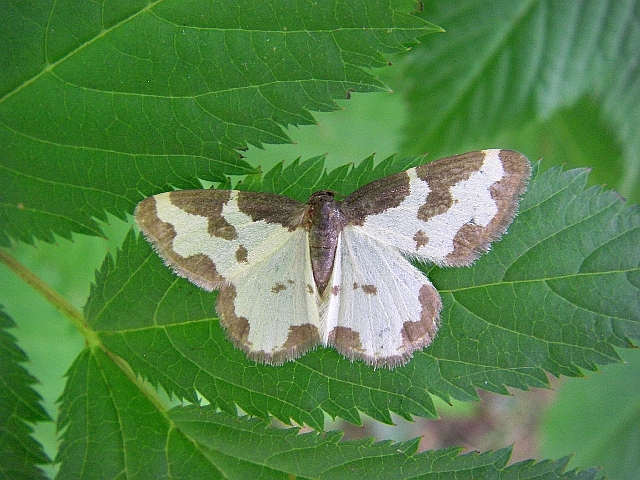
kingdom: Animalia
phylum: Arthropoda
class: Insecta
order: Lepidoptera
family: Geometridae
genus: Lomaspilis
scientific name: Lomaspilis marginata
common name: Clouded border
